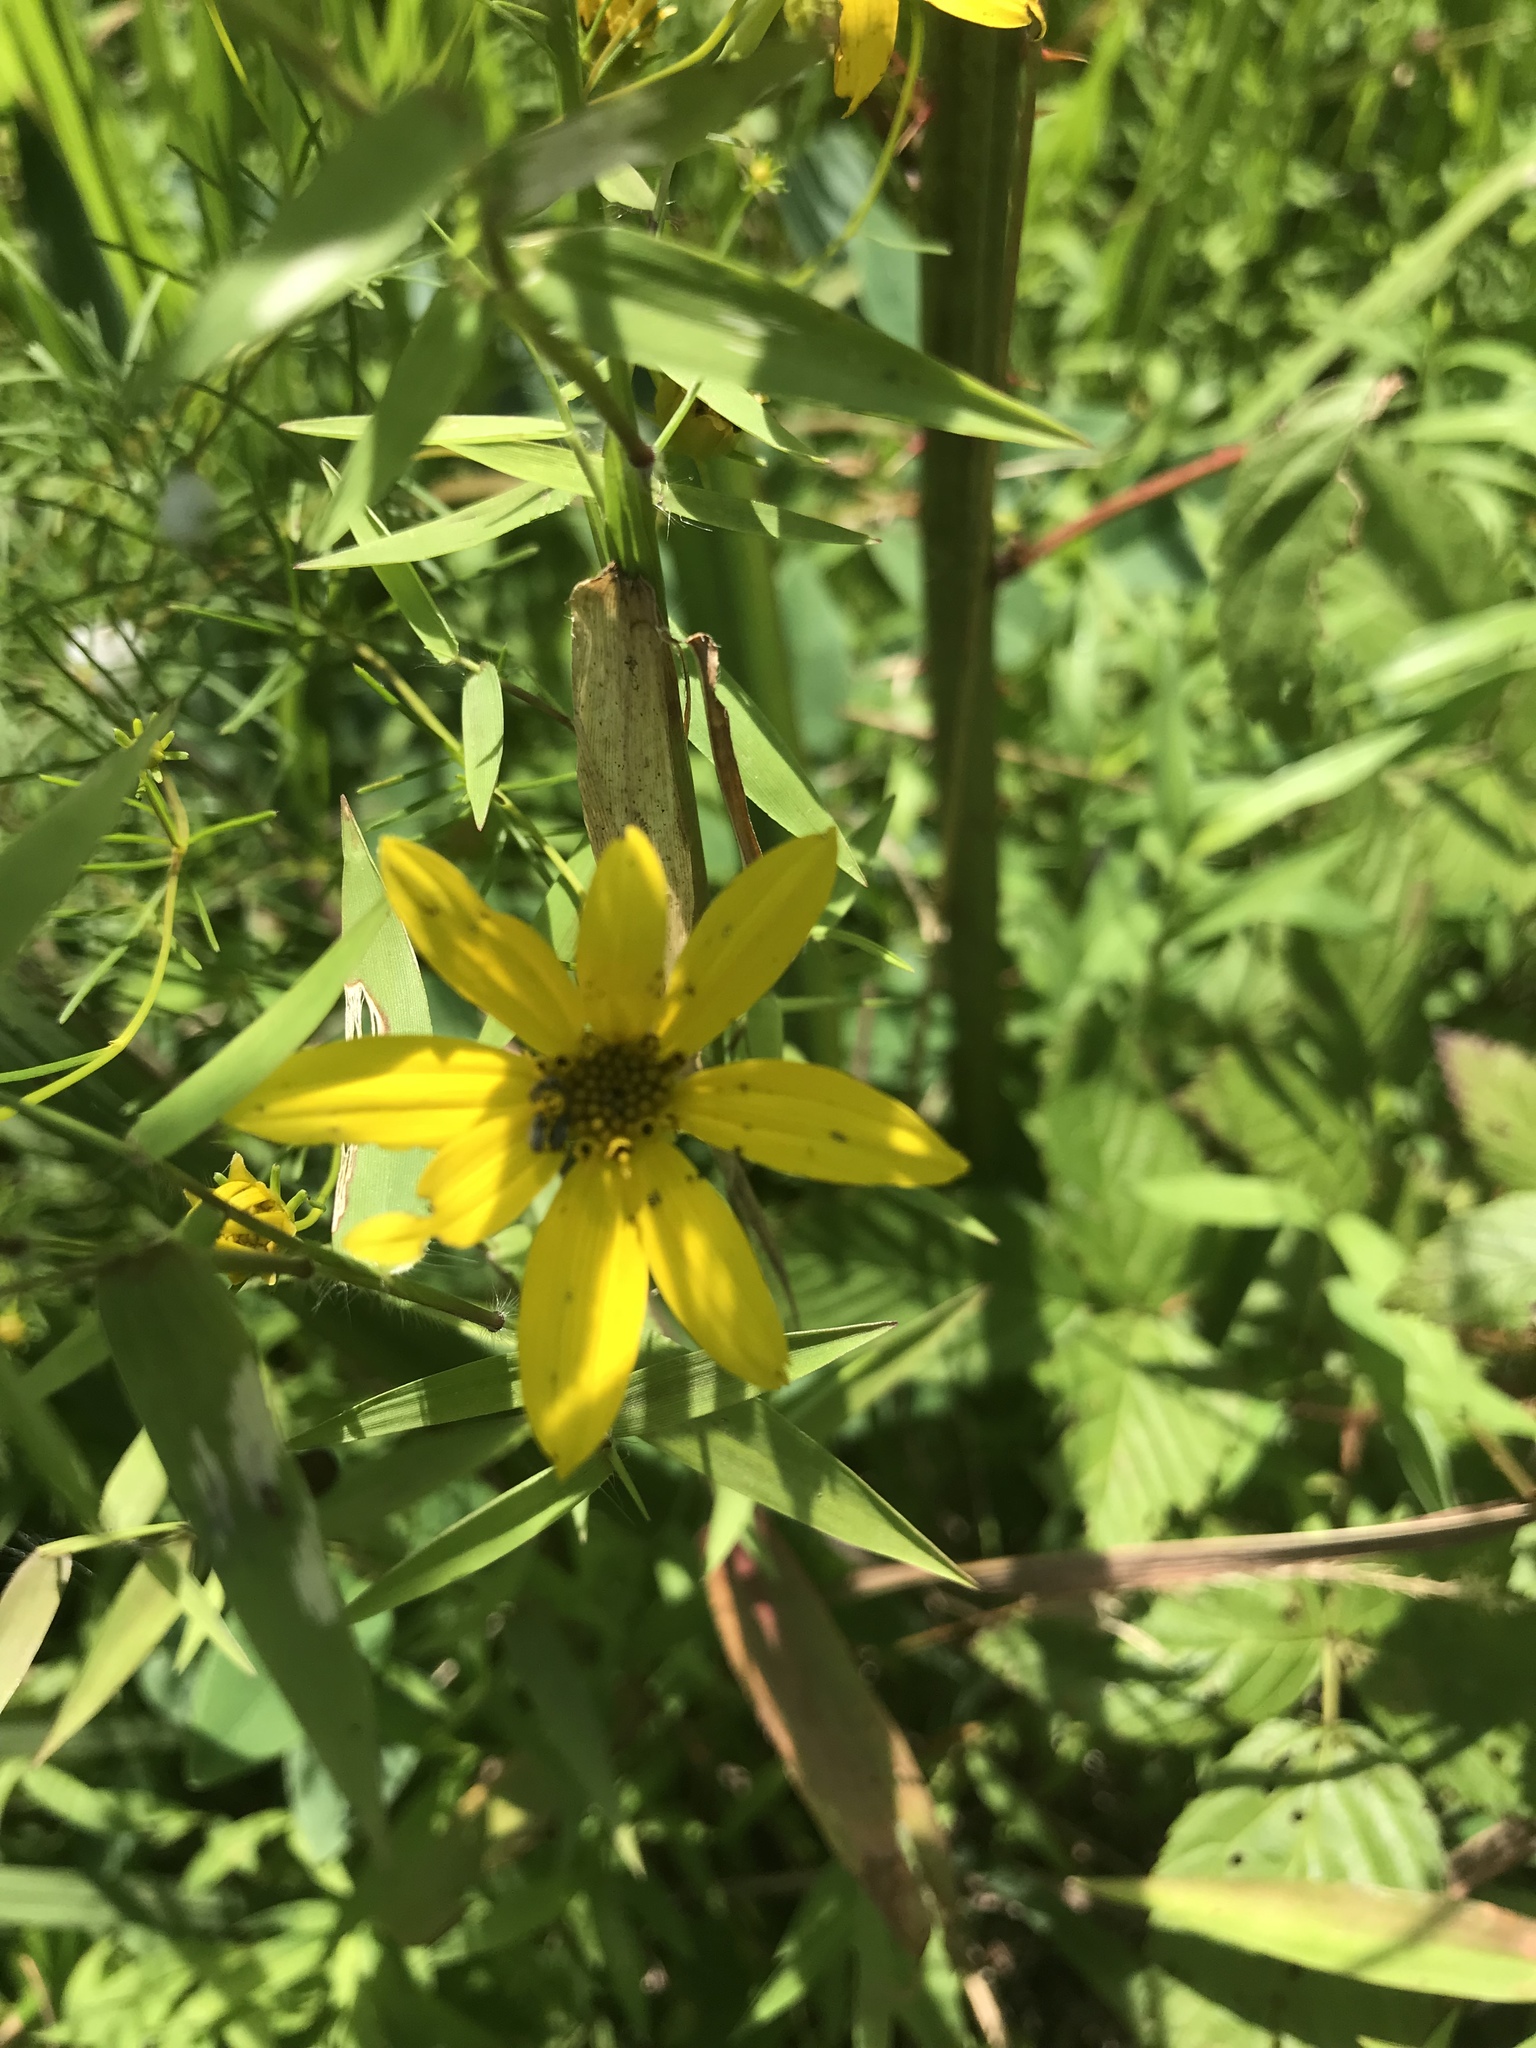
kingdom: Plantae
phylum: Tracheophyta
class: Magnoliopsida
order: Asterales
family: Asteraceae
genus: Coreopsis
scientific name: Coreopsis verticillata
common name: Whorled tickseed
